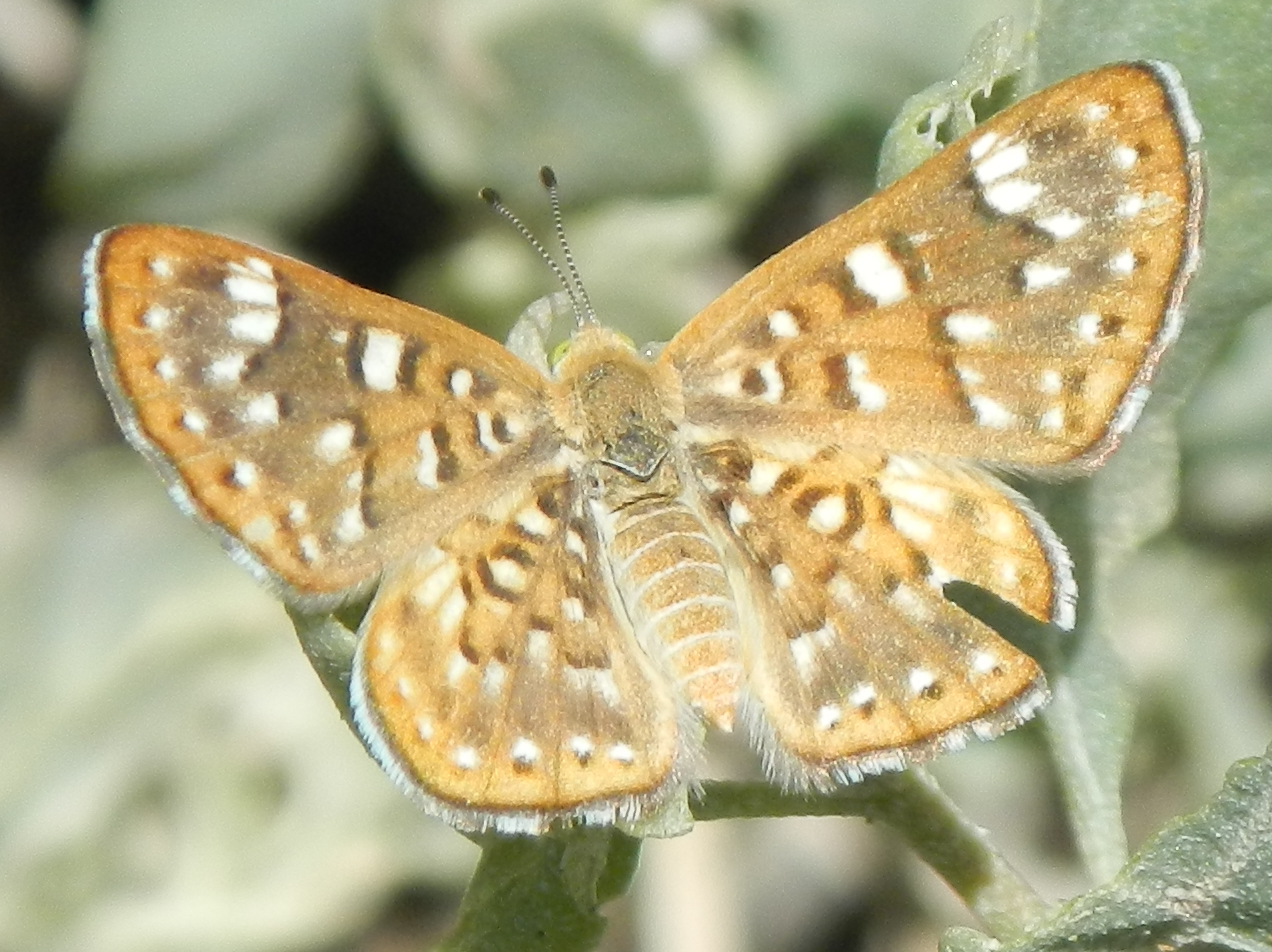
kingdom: Animalia
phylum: Arthropoda
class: Insecta
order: Lepidoptera
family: Riodinidae
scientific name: Riodinidae
